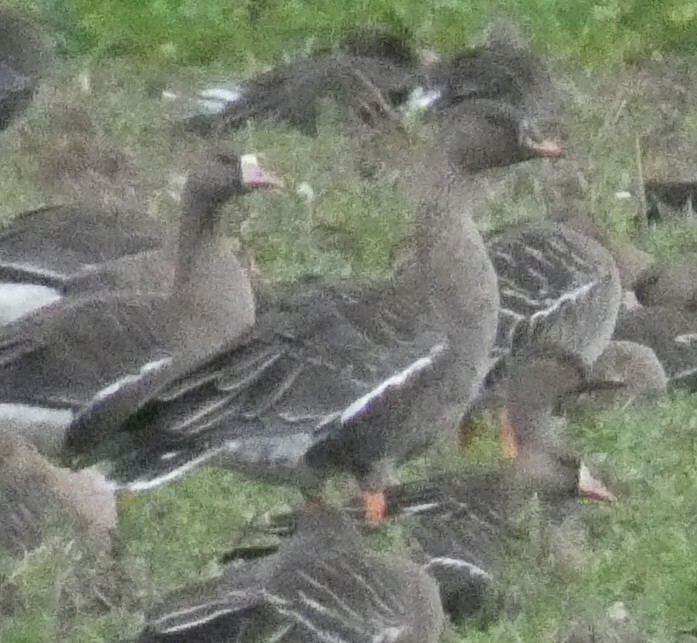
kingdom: Animalia
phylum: Chordata
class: Aves
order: Anseriformes
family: Anatidae
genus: Anser
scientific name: Anser serrirostris
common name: Tundra bean goose
